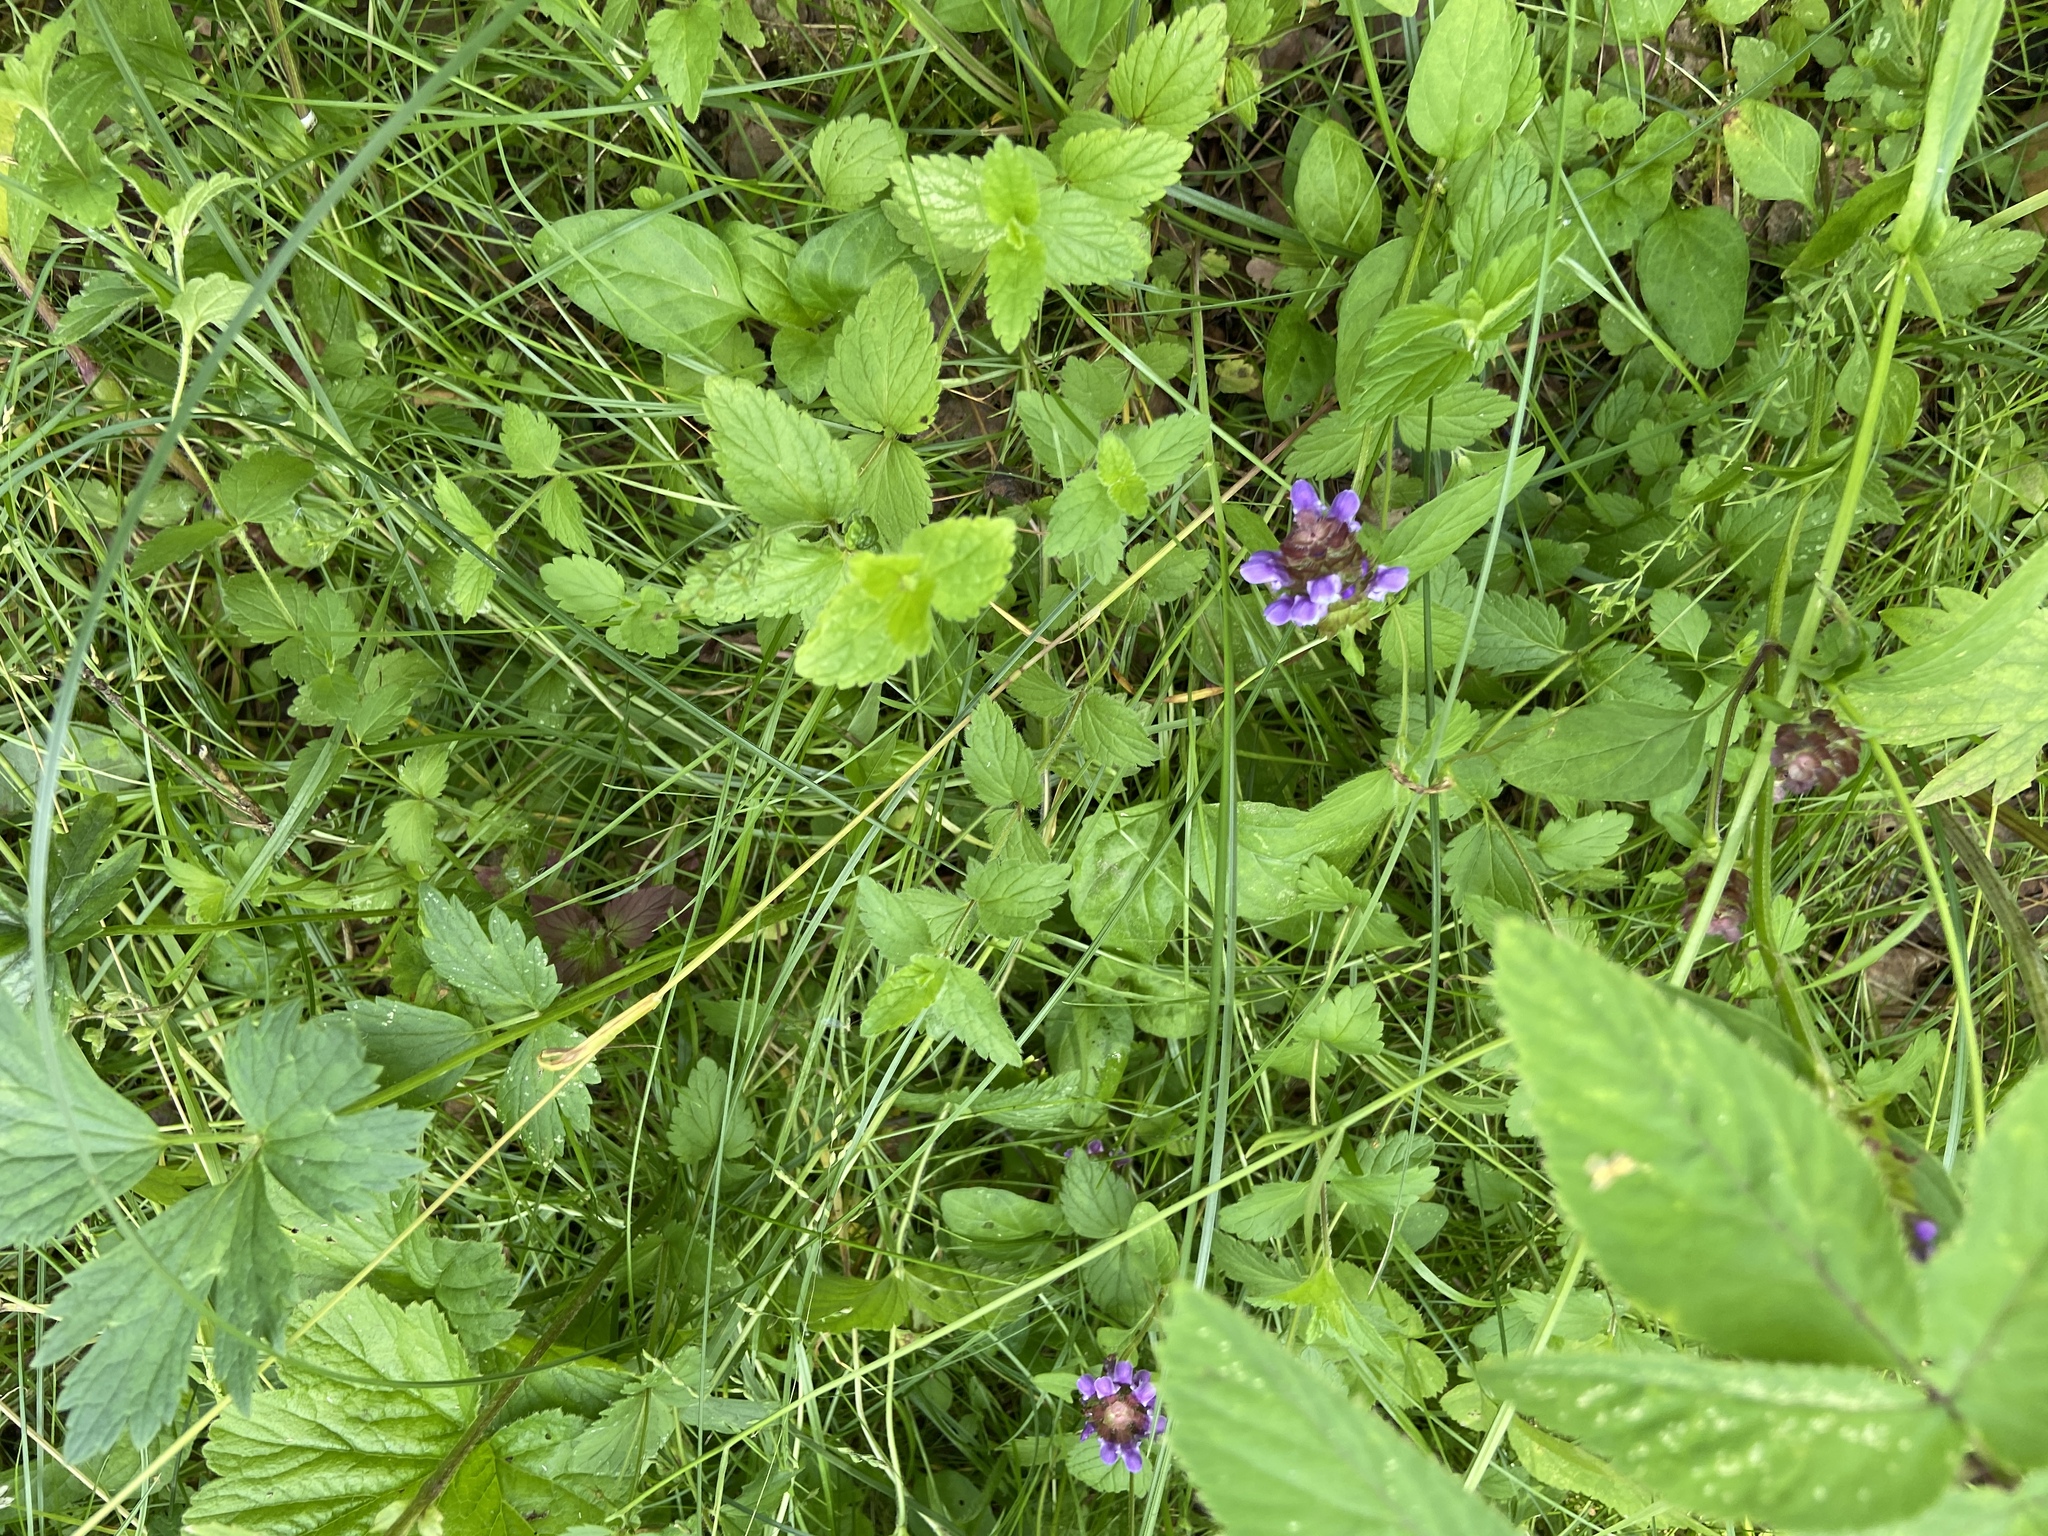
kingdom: Plantae
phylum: Tracheophyta
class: Magnoliopsida
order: Lamiales
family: Lamiaceae
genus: Prunella
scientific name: Prunella vulgaris
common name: Heal-all
